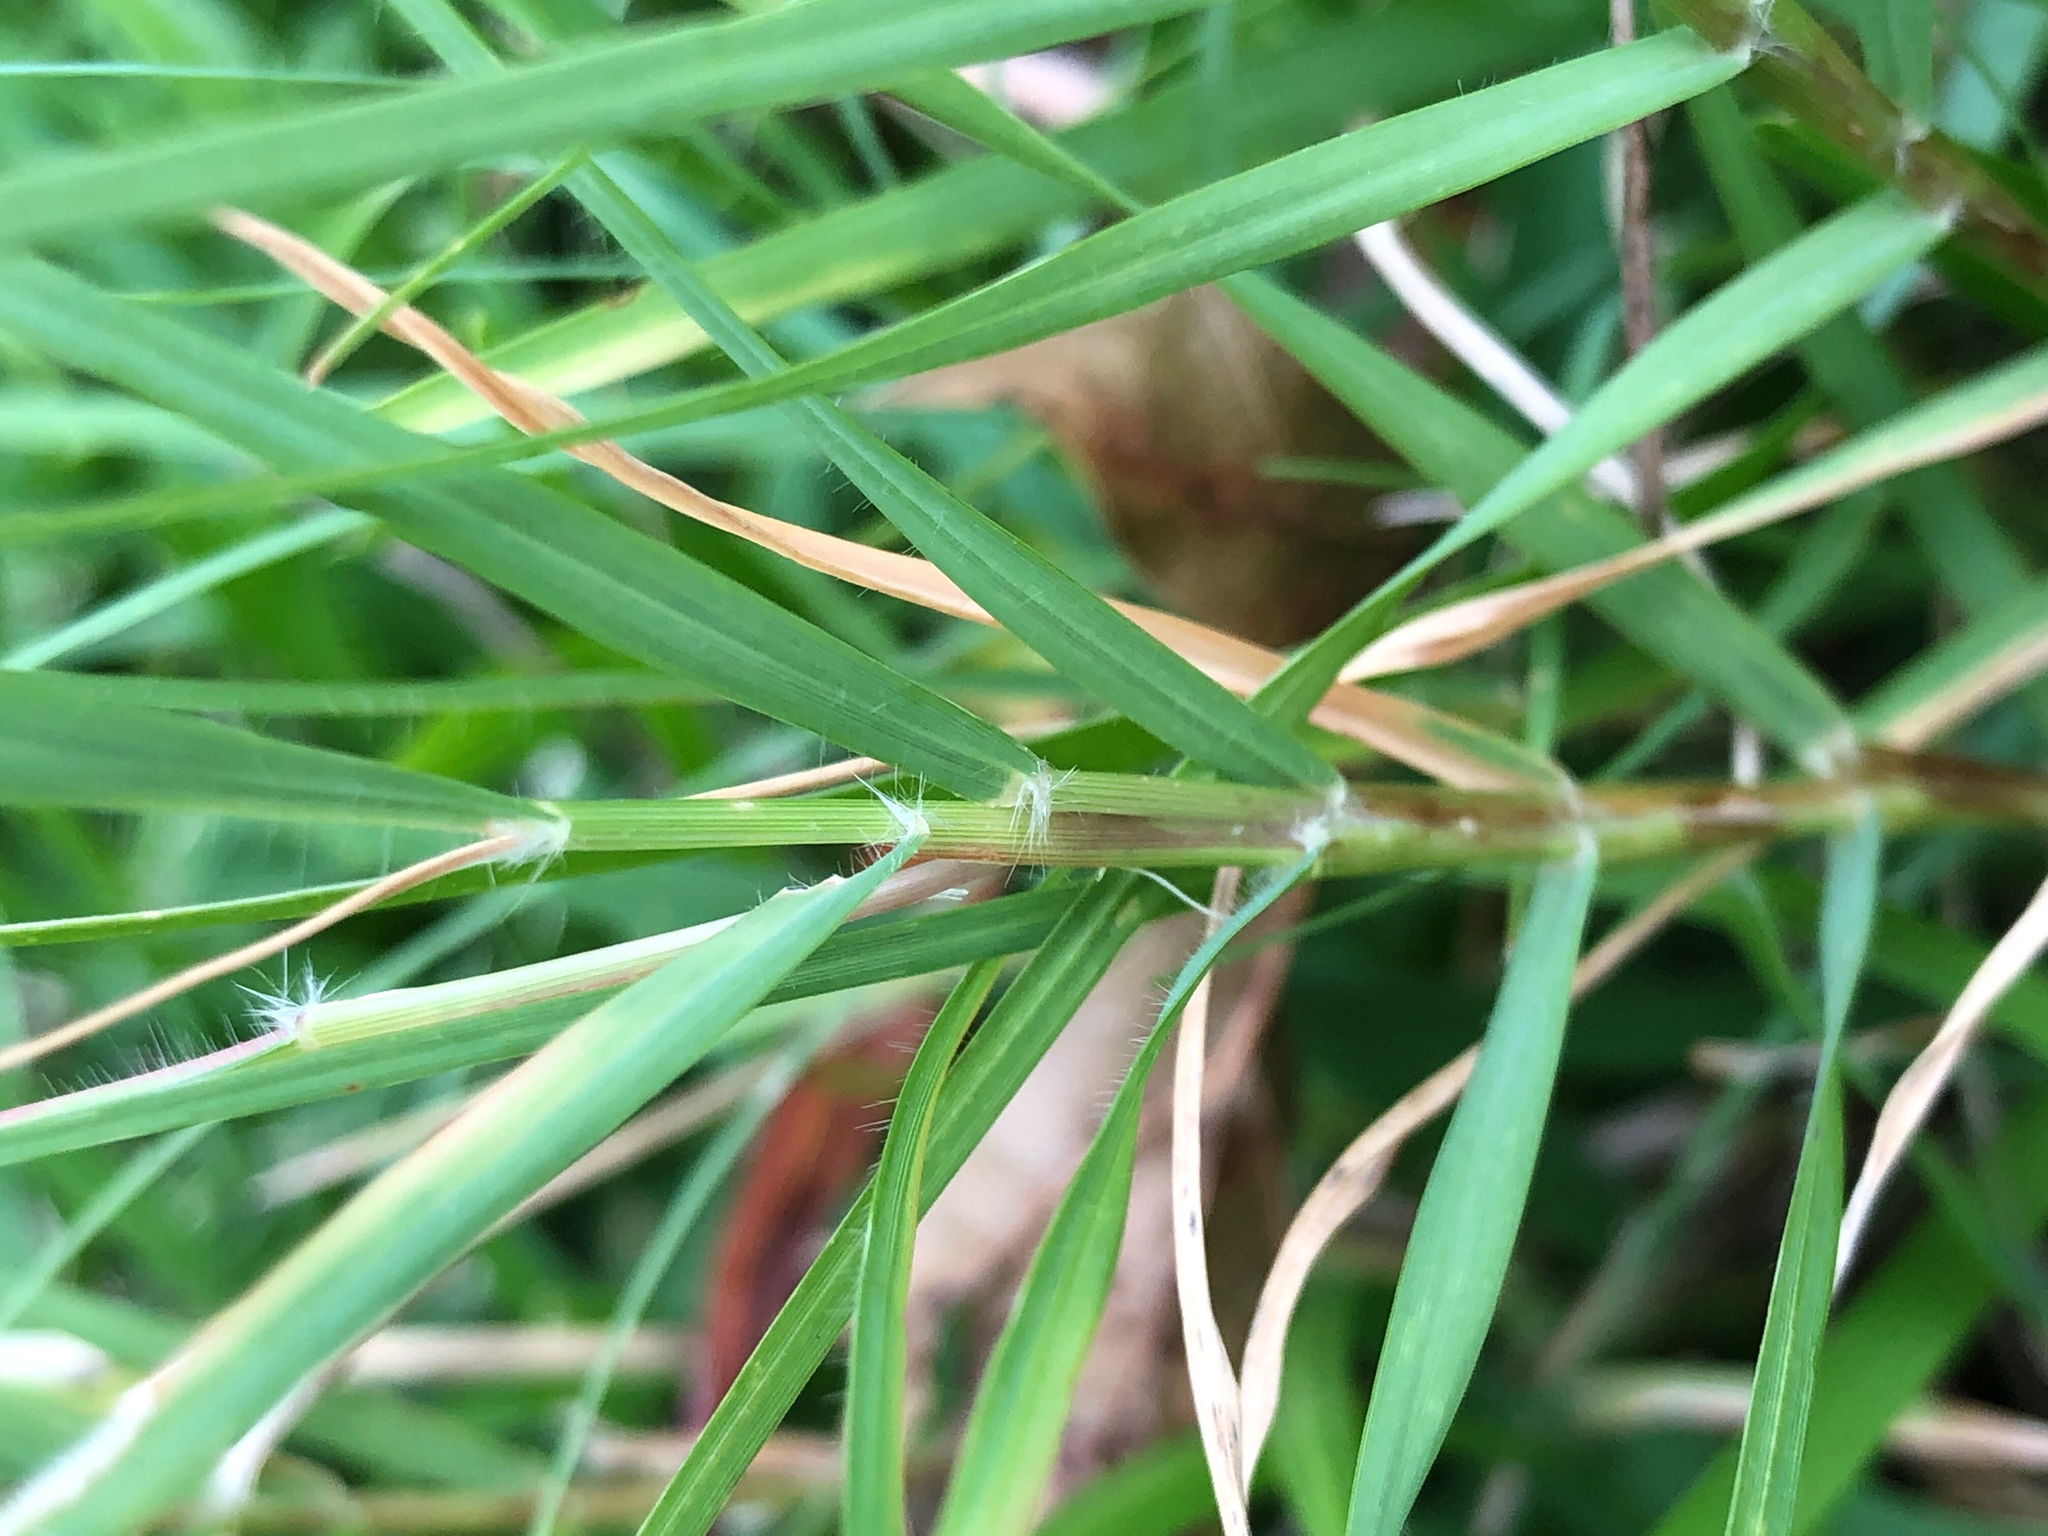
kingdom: Plantae
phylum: Tracheophyta
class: Liliopsida
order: Poales
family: Poaceae
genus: Cynodon
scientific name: Cynodon dactylon
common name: Bermuda grass
